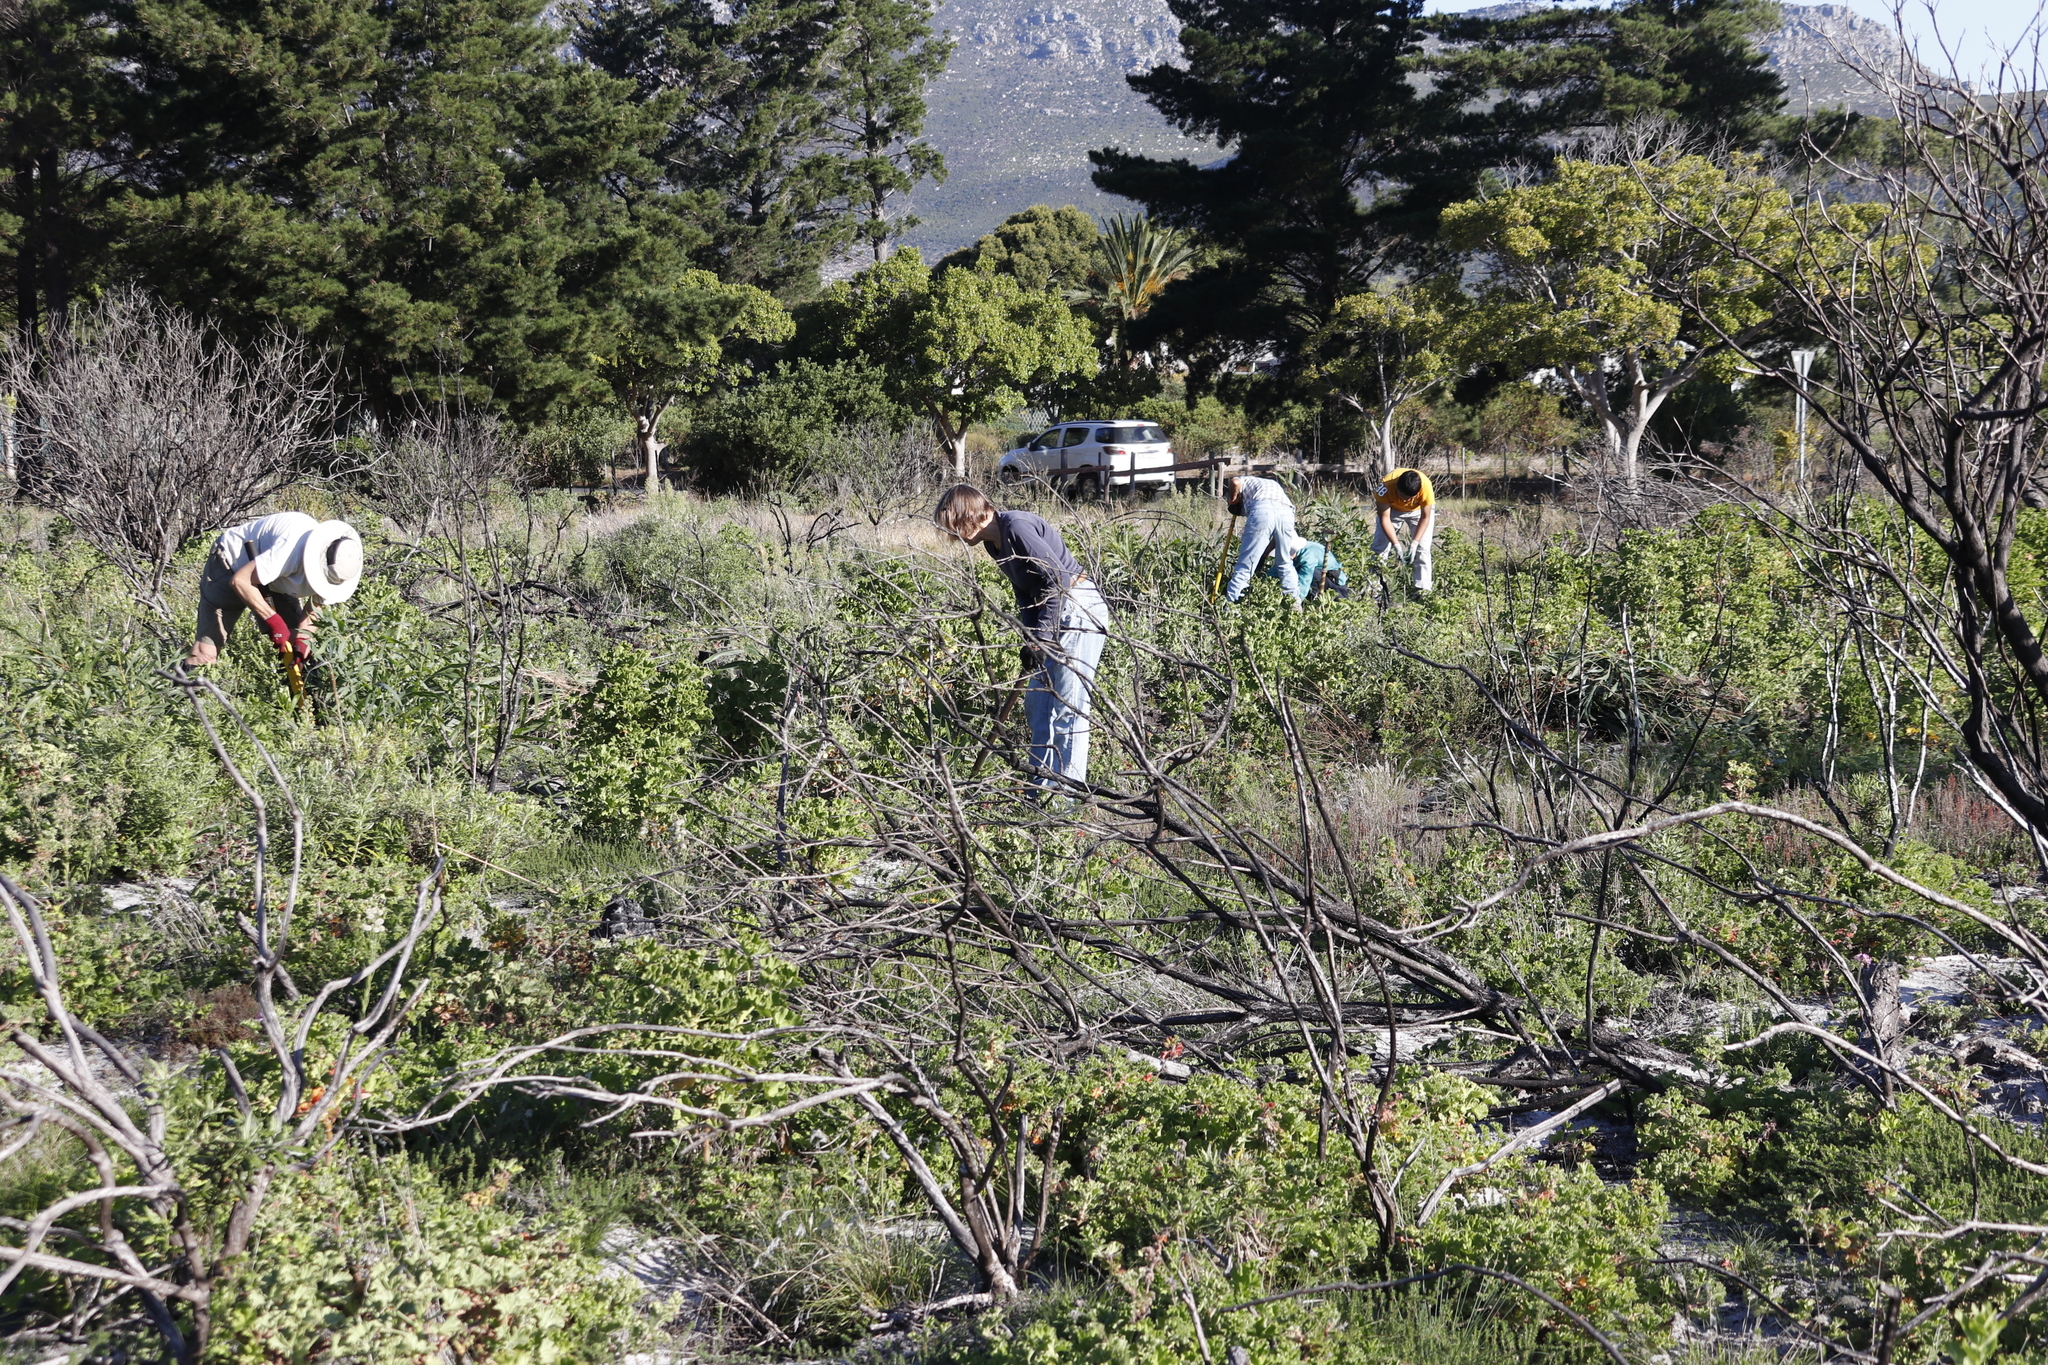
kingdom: Plantae
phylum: Tracheophyta
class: Magnoliopsida
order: Geraniales
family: Geraniaceae
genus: Pelargonium
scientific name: Pelargonium cucullatum
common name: Tree pelargonium
